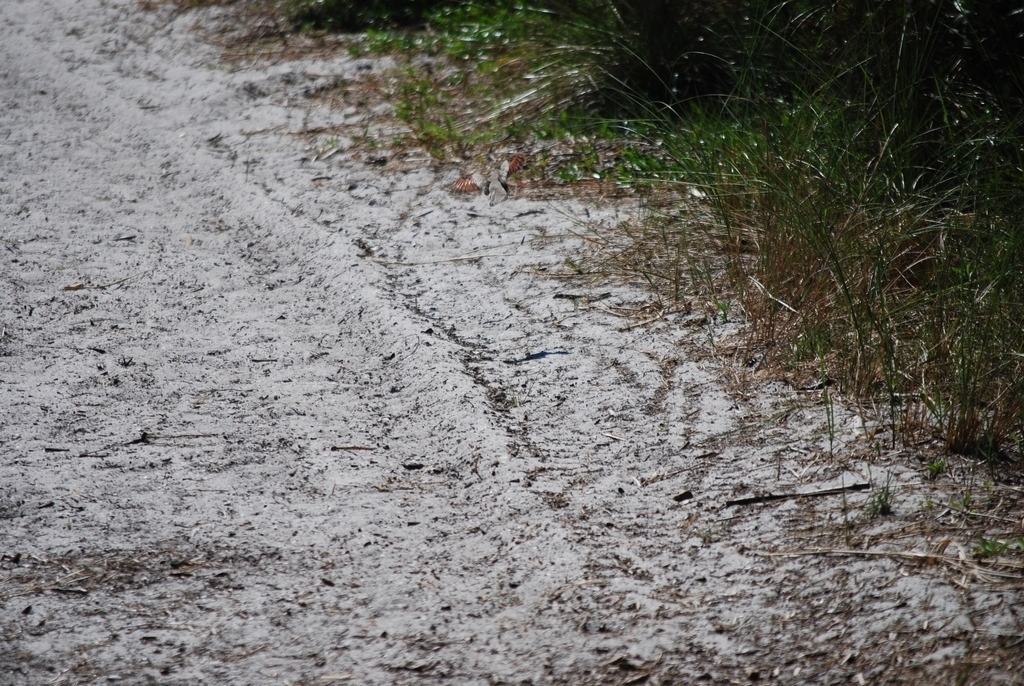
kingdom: Animalia
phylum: Chordata
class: Aves
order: Columbiformes
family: Columbidae
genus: Columbina
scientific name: Columbina passerina
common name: Common ground-dove
